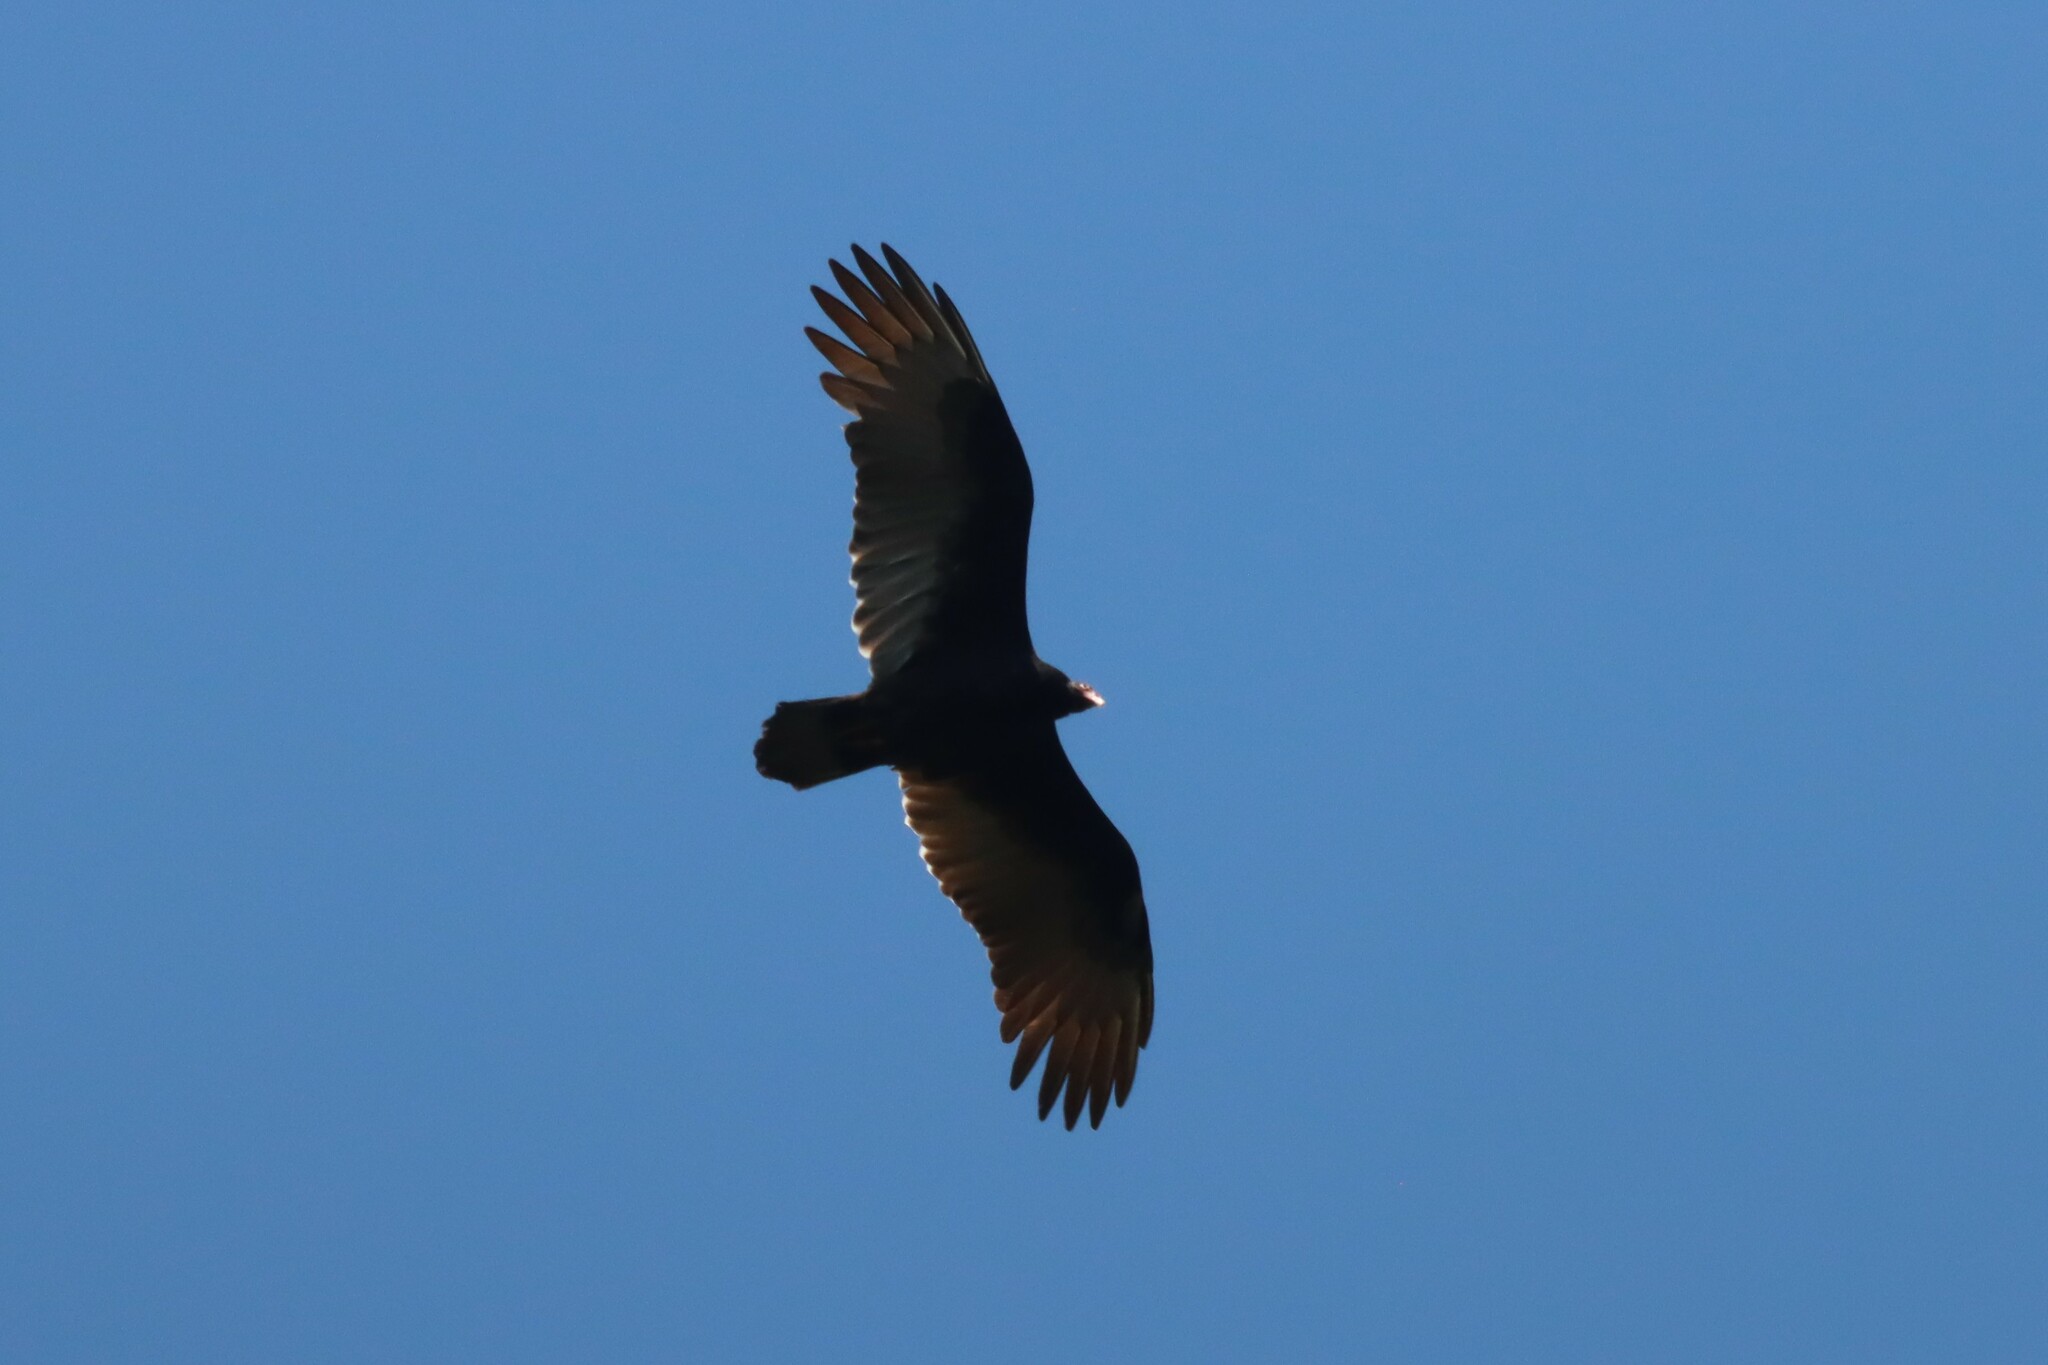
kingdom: Animalia
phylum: Chordata
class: Aves
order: Accipitriformes
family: Cathartidae
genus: Cathartes
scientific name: Cathartes aura
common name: Turkey vulture
